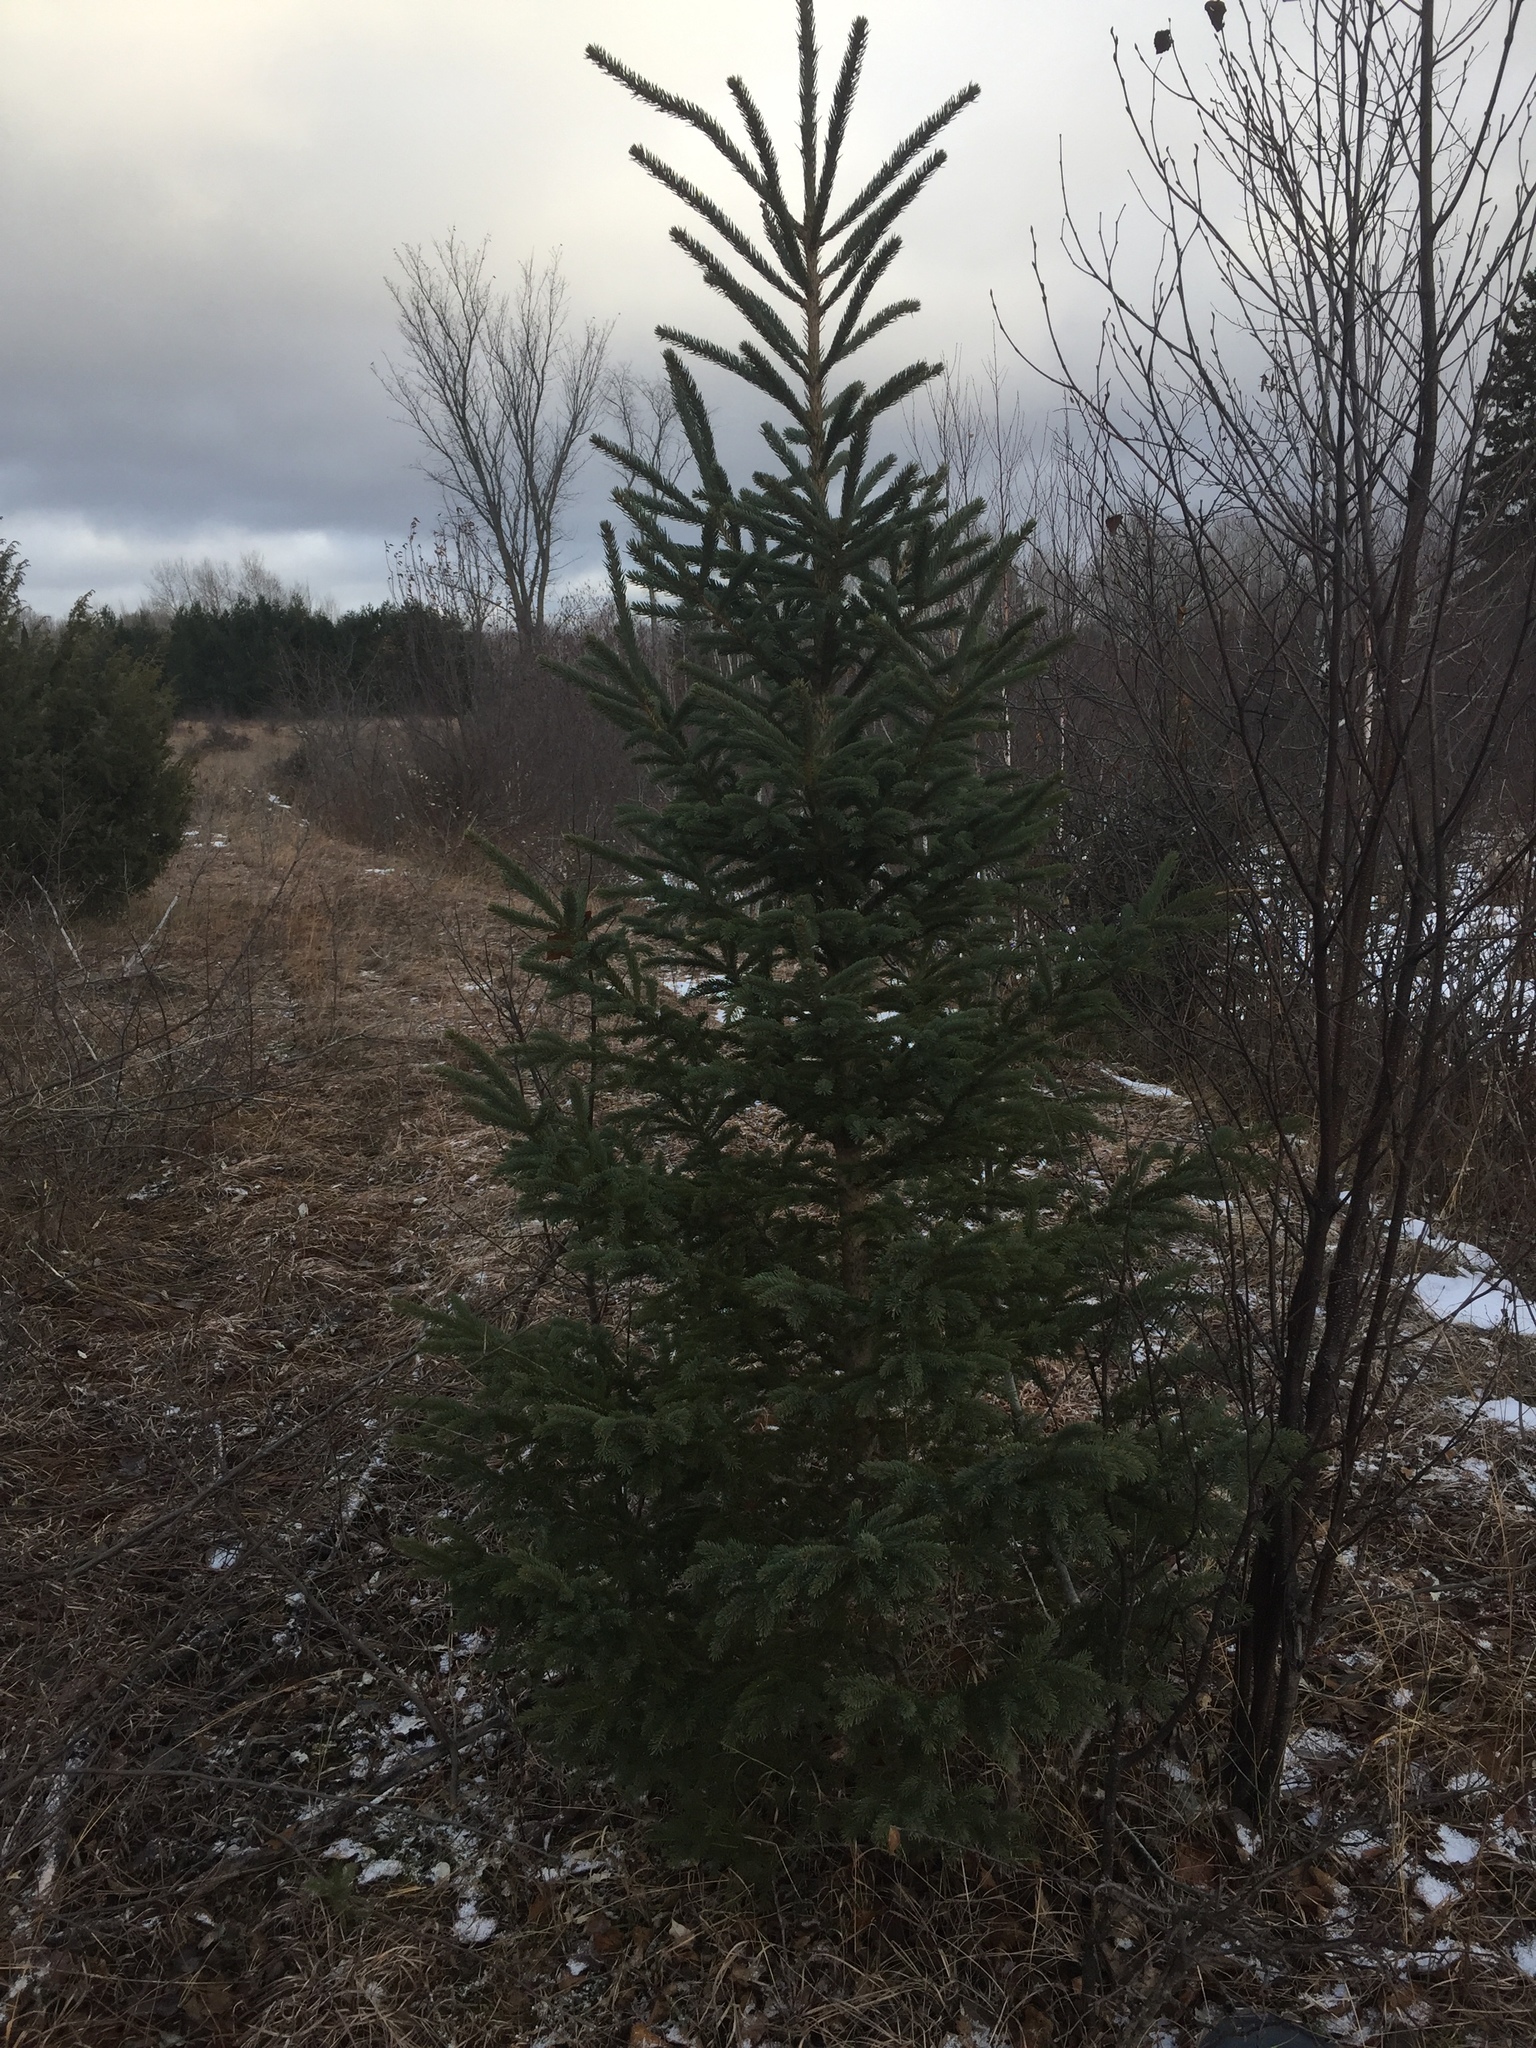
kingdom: Plantae
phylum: Tracheophyta
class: Pinopsida
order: Pinales
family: Pinaceae
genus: Picea
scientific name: Picea glauca
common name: White spruce
